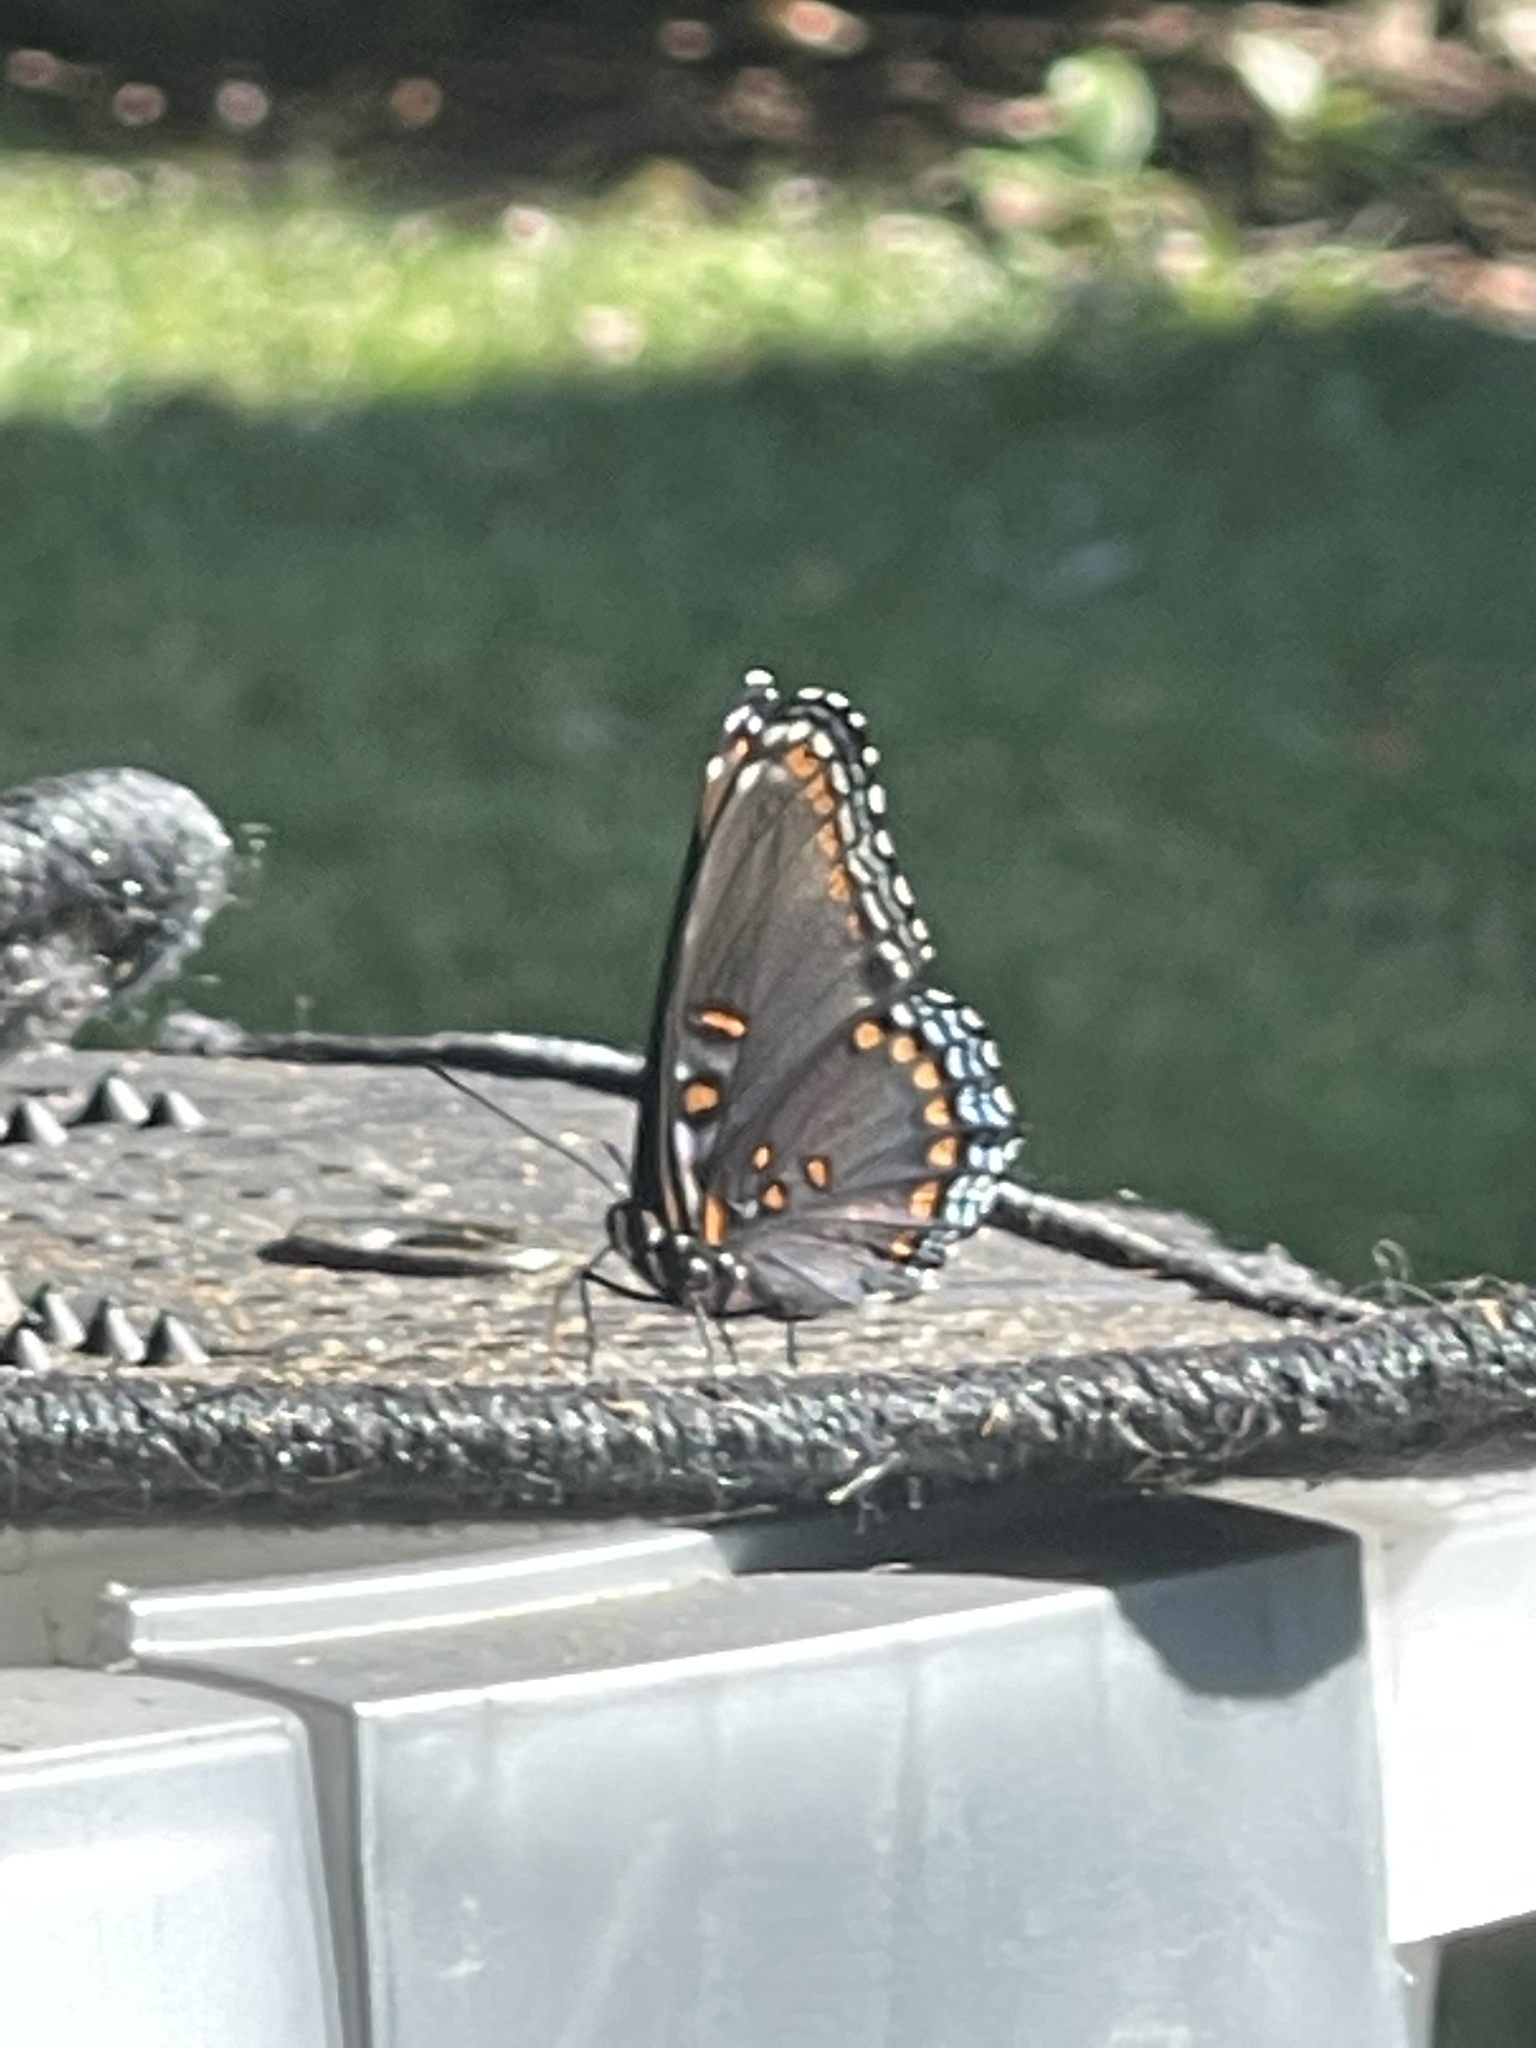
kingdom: Animalia
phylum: Arthropoda
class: Insecta
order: Lepidoptera
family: Nymphalidae
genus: Limenitis
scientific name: Limenitis astyanax
